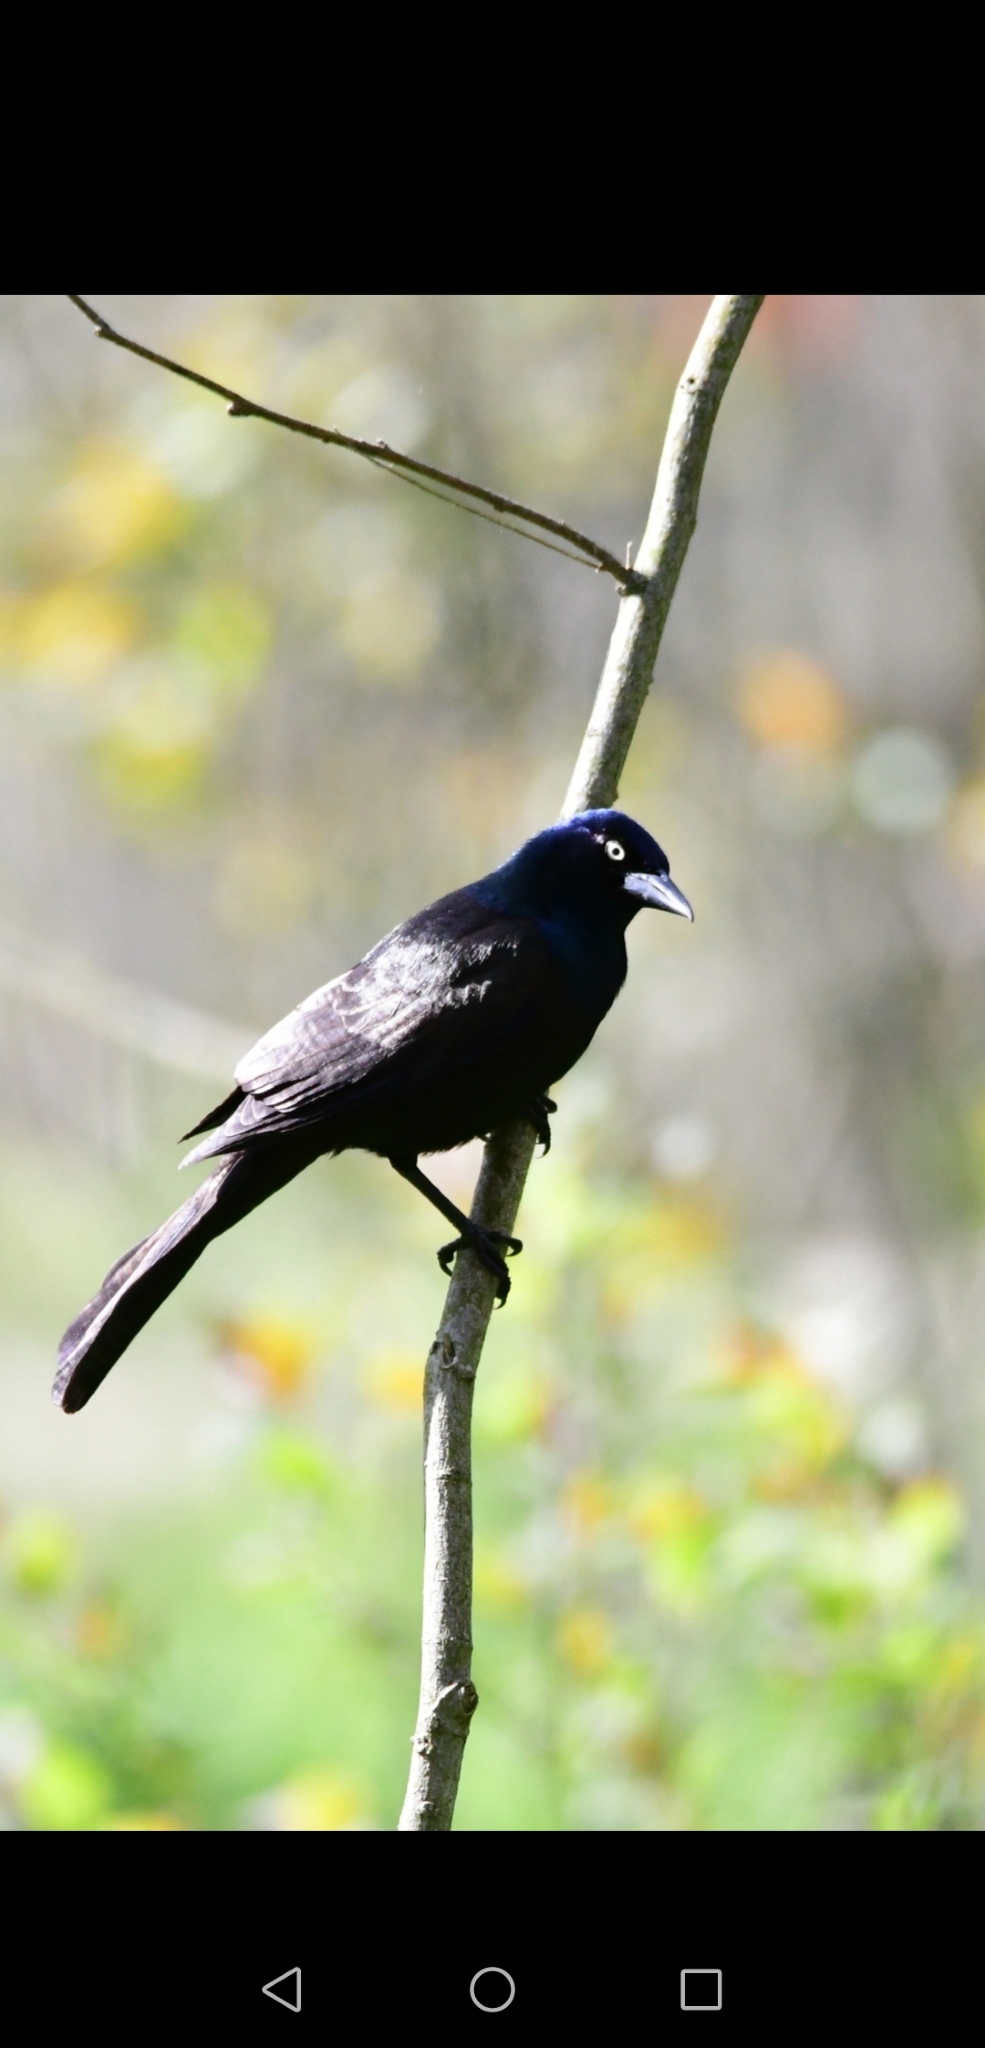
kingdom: Animalia
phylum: Chordata
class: Aves
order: Passeriformes
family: Icteridae
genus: Quiscalus
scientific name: Quiscalus quiscula
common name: Common grackle
